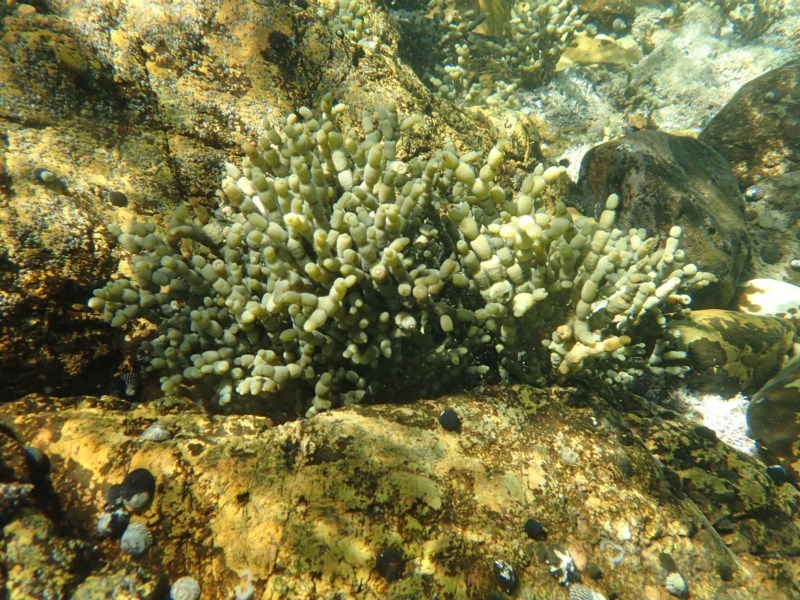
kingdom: Chromista
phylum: Ochrophyta
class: Phaeophyceae
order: Fucales
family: Hormosiraceae
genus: Hormosira
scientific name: Hormosira banksii
